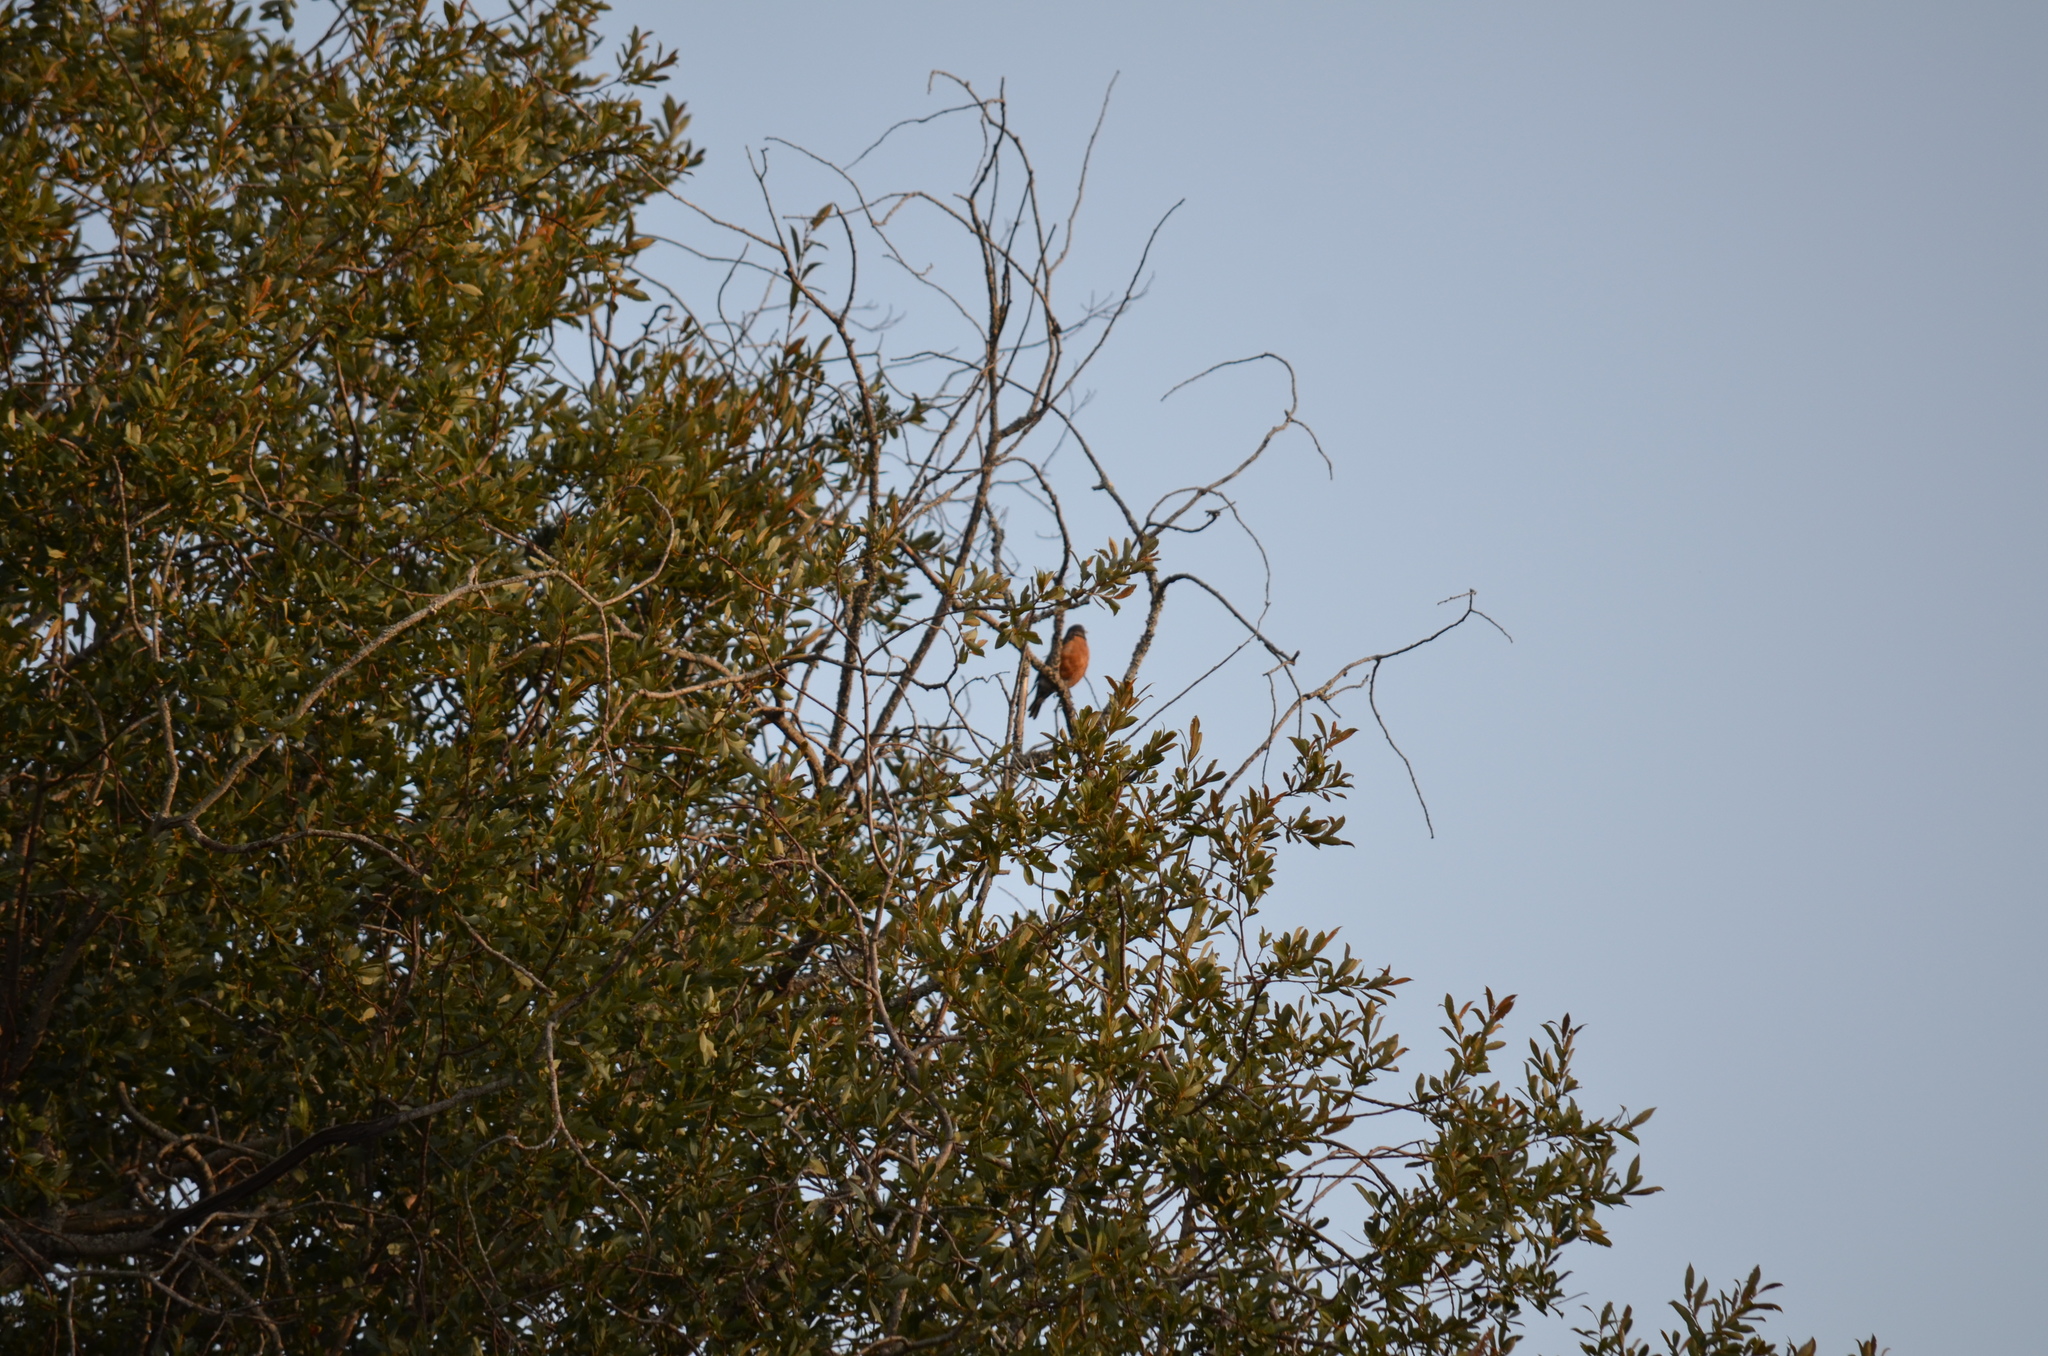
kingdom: Animalia
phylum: Chordata
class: Aves
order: Passeriformes
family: Turdidae
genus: Turdus
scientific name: Turdus migratorius
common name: American robin
